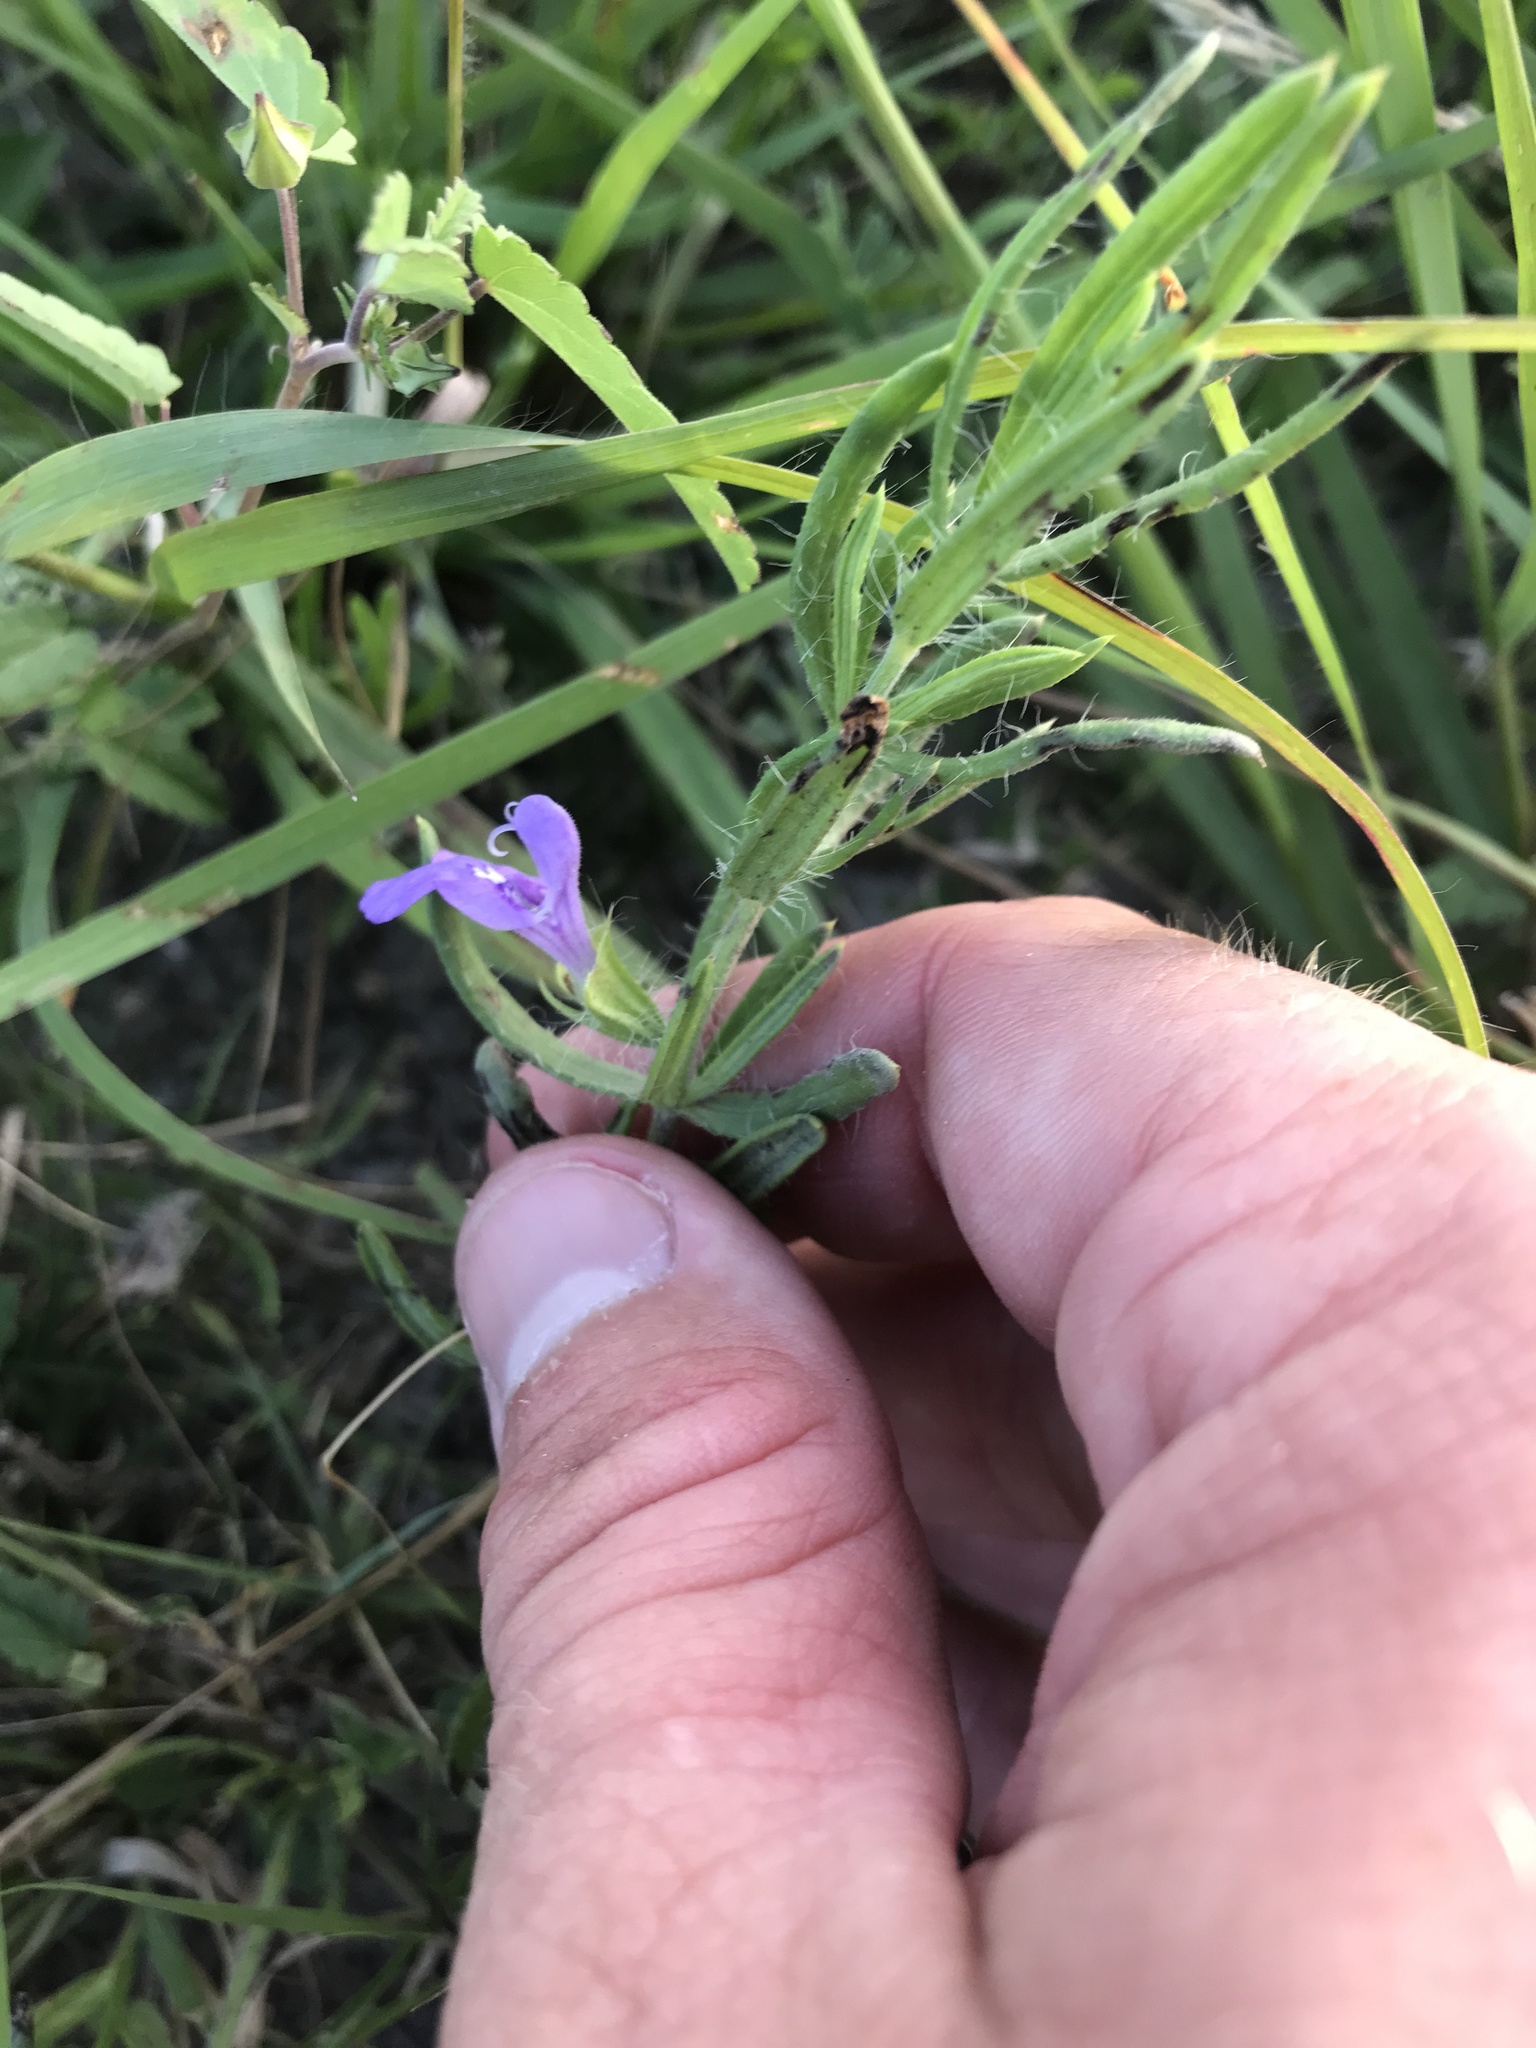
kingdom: Plantae
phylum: Tracheophyta
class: Magnoliopsida
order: Lamiales
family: Lamiaceae
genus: Salvia
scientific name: Salvia texana
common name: Texas sage
